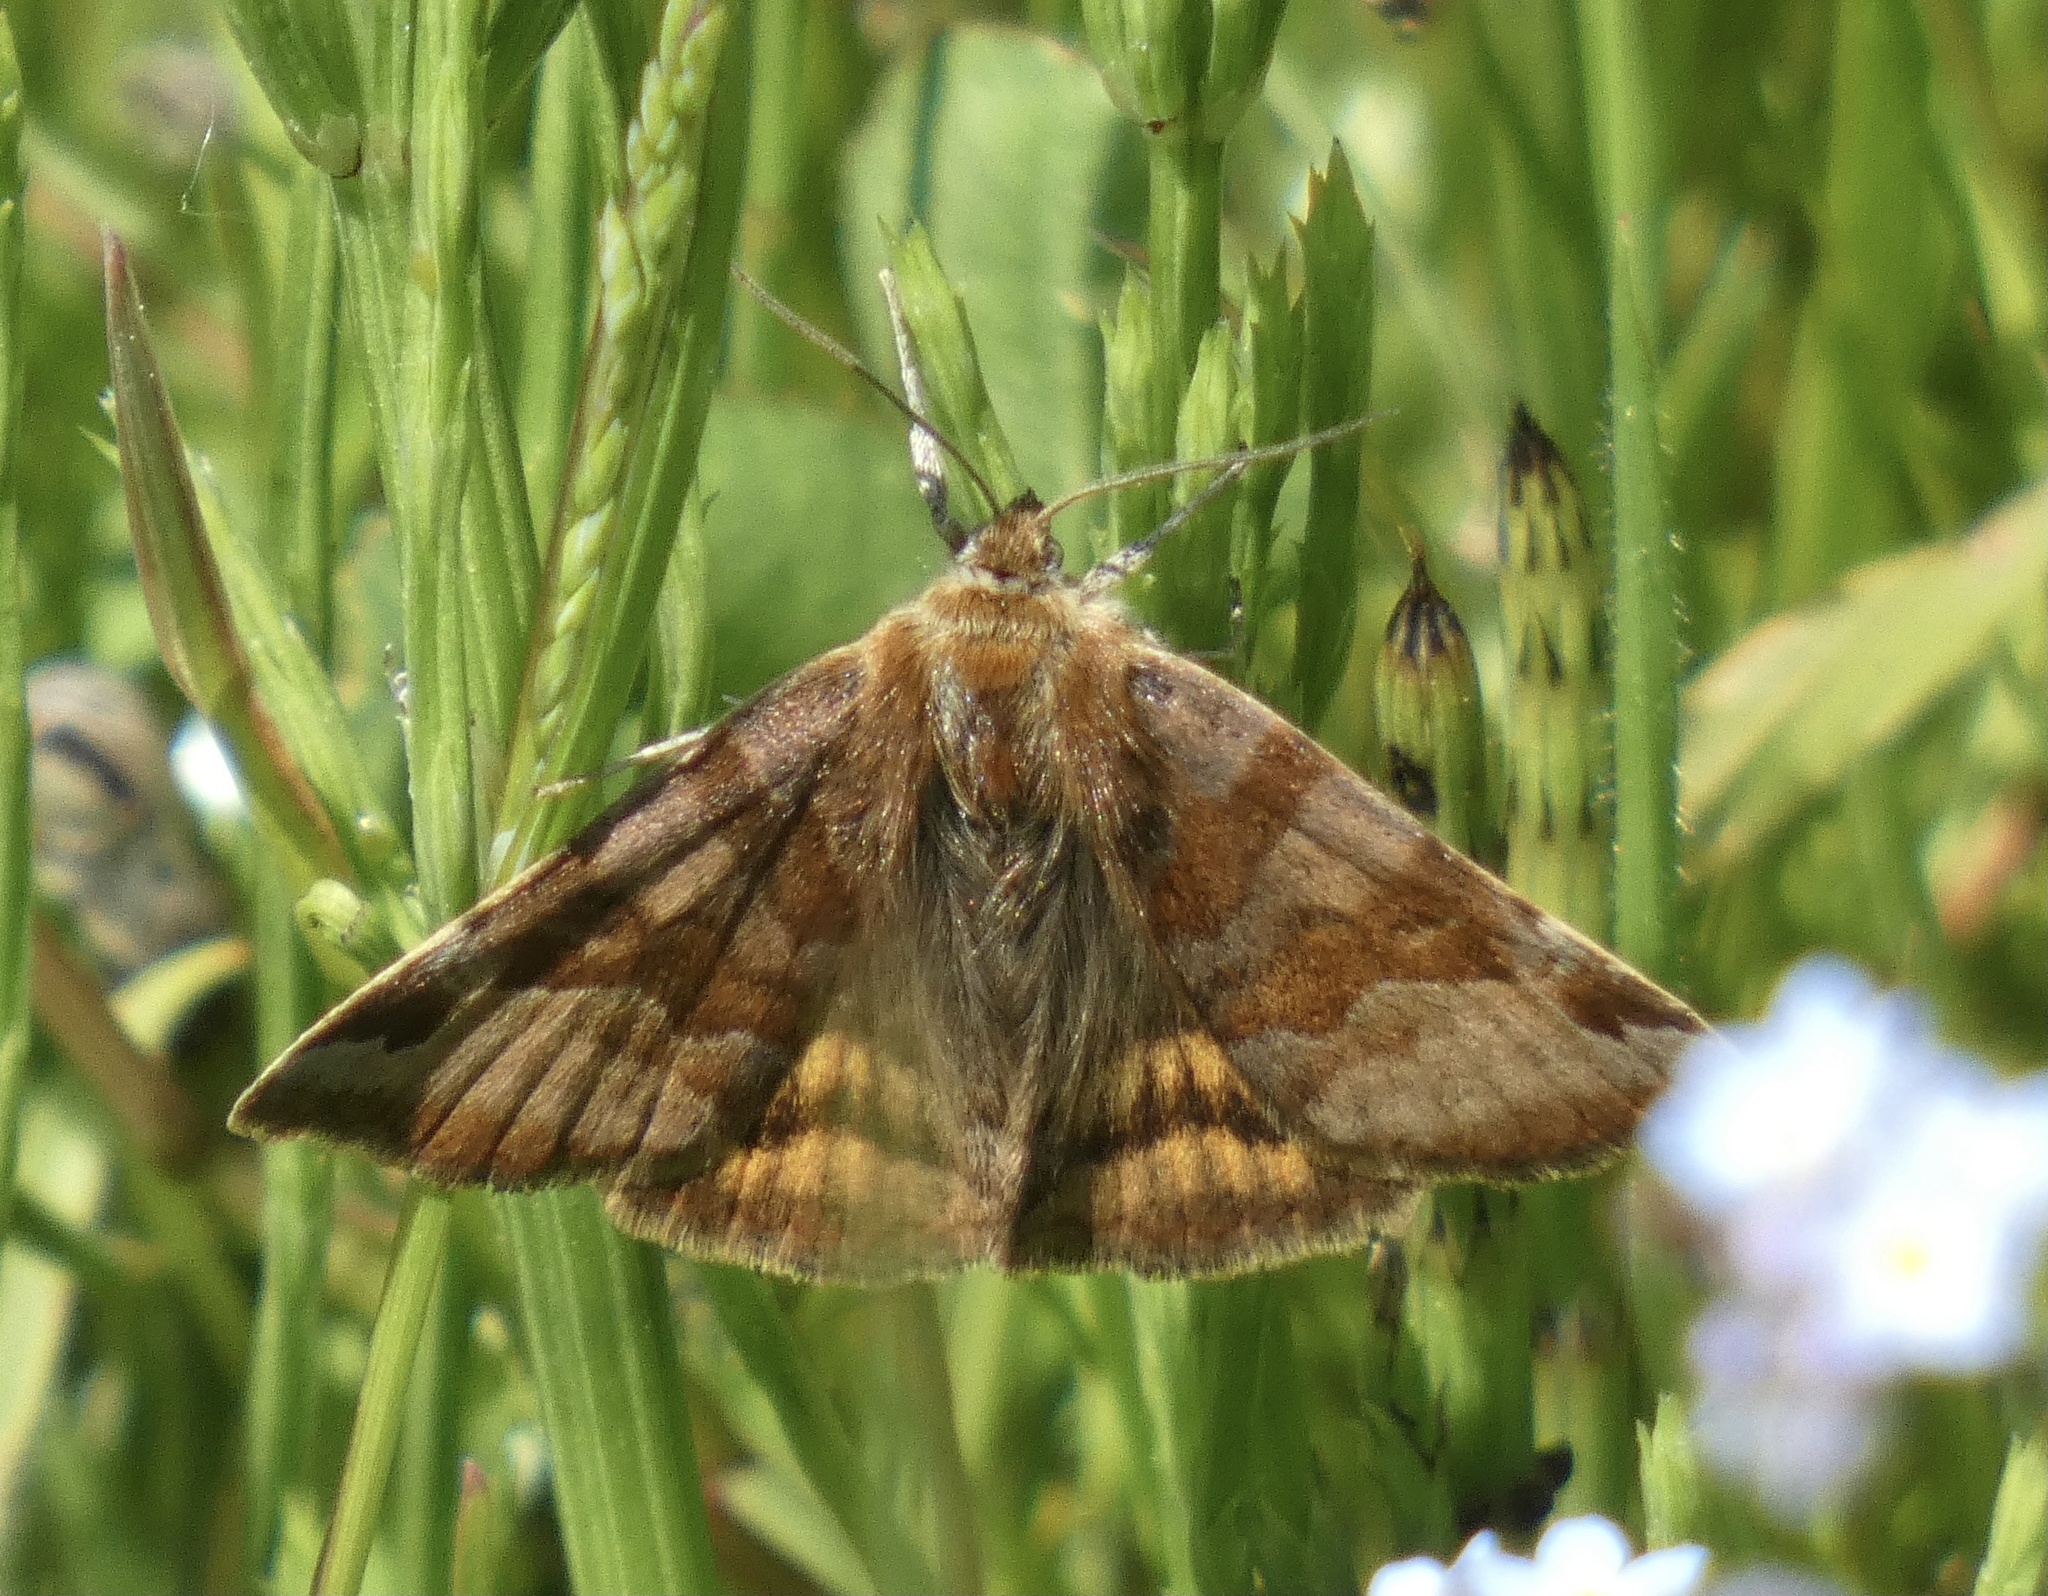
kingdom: Animalia
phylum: Arthropoda
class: Insecta
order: Lepidoptera
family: Erebidae
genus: Euclidia
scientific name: Euclidia glyphica
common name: Burnet companion
